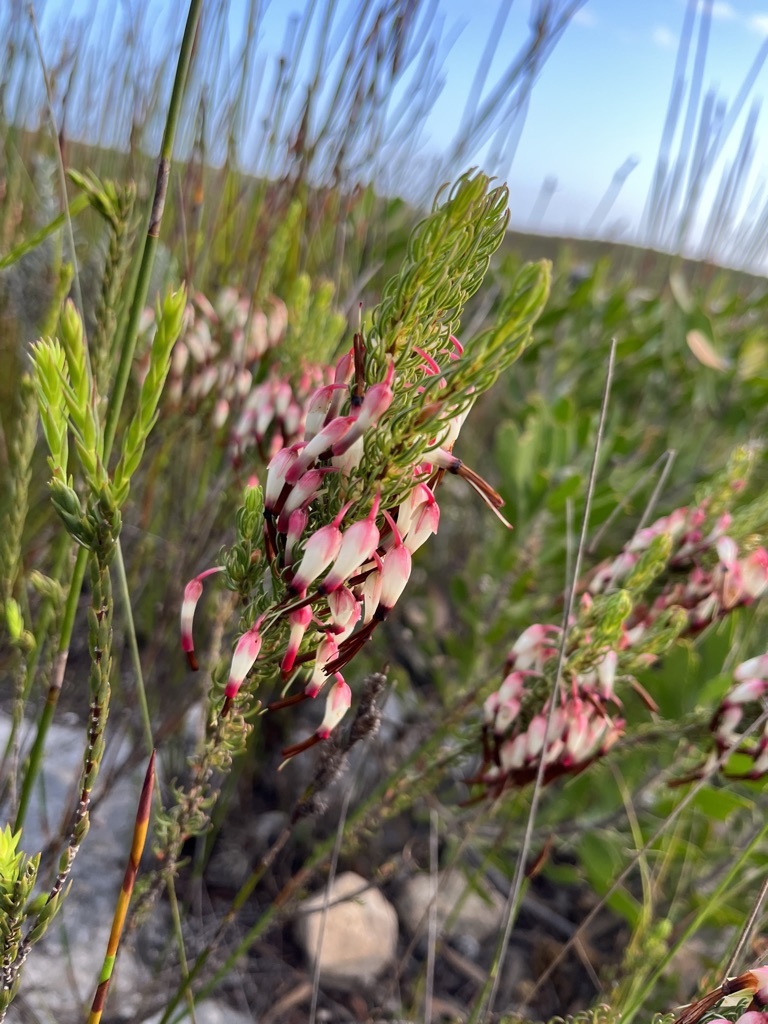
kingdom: Plantae
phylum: Tracheophyta
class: Magnoliopsida
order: Ericales
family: Ericaceae
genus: Erica
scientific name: Erica plukenetii
